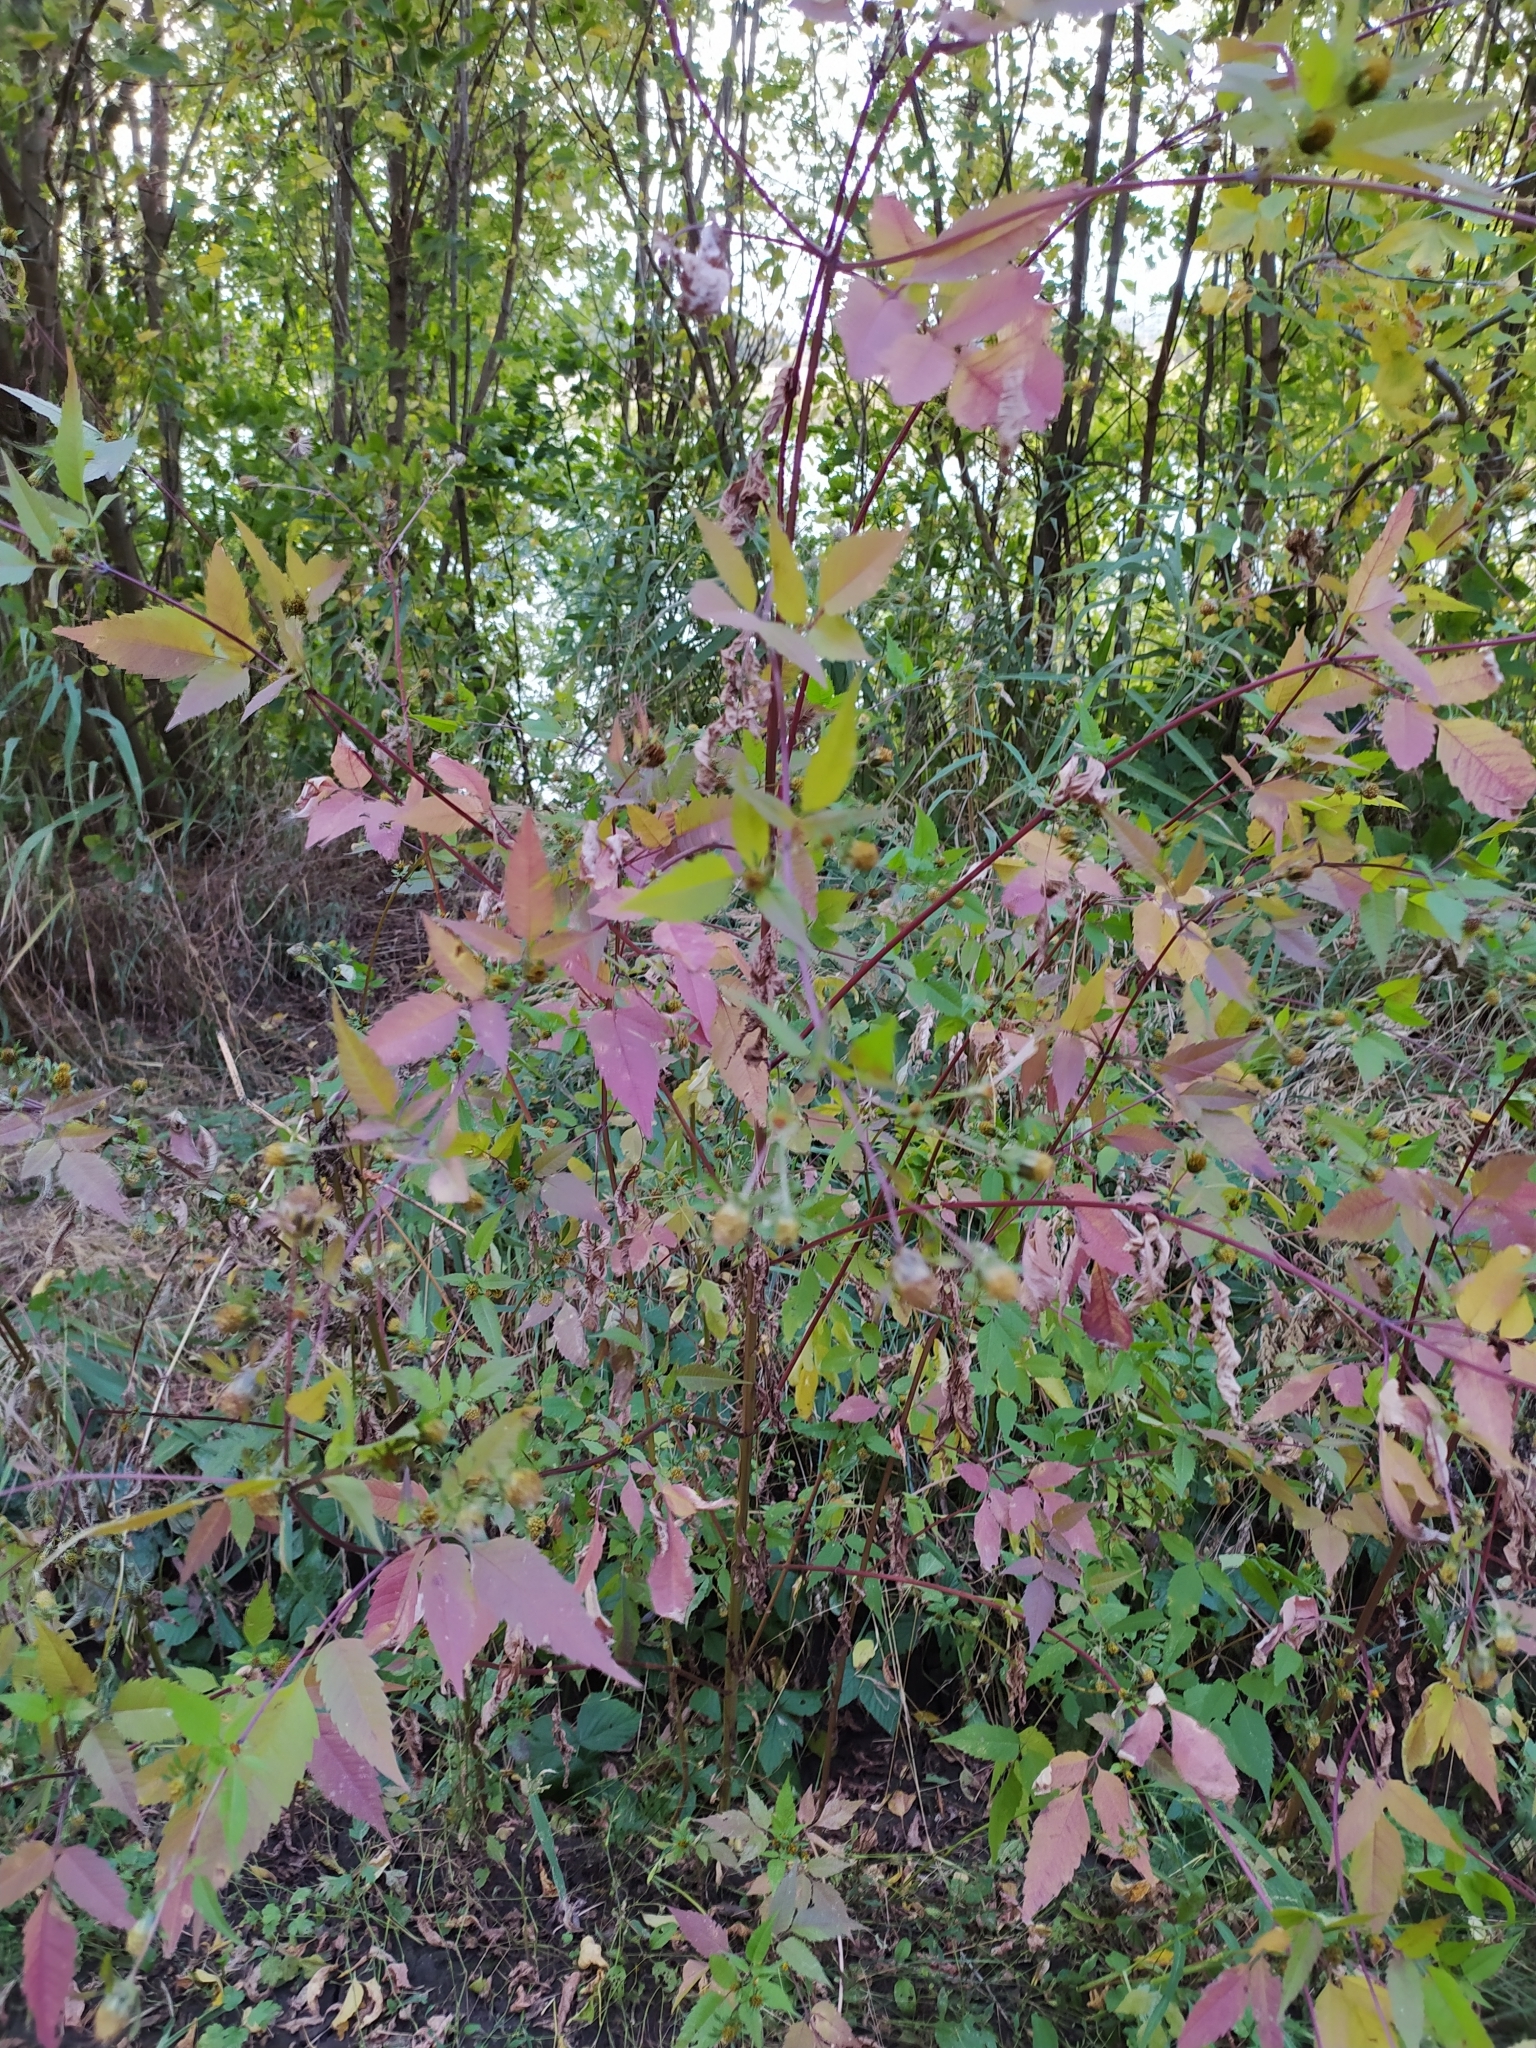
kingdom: Plantae
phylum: Tracheophyta
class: Magnoliopsida
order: Asterales
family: Asteraceae
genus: Bidens
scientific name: Bidens frondosa
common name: Beggarticks
